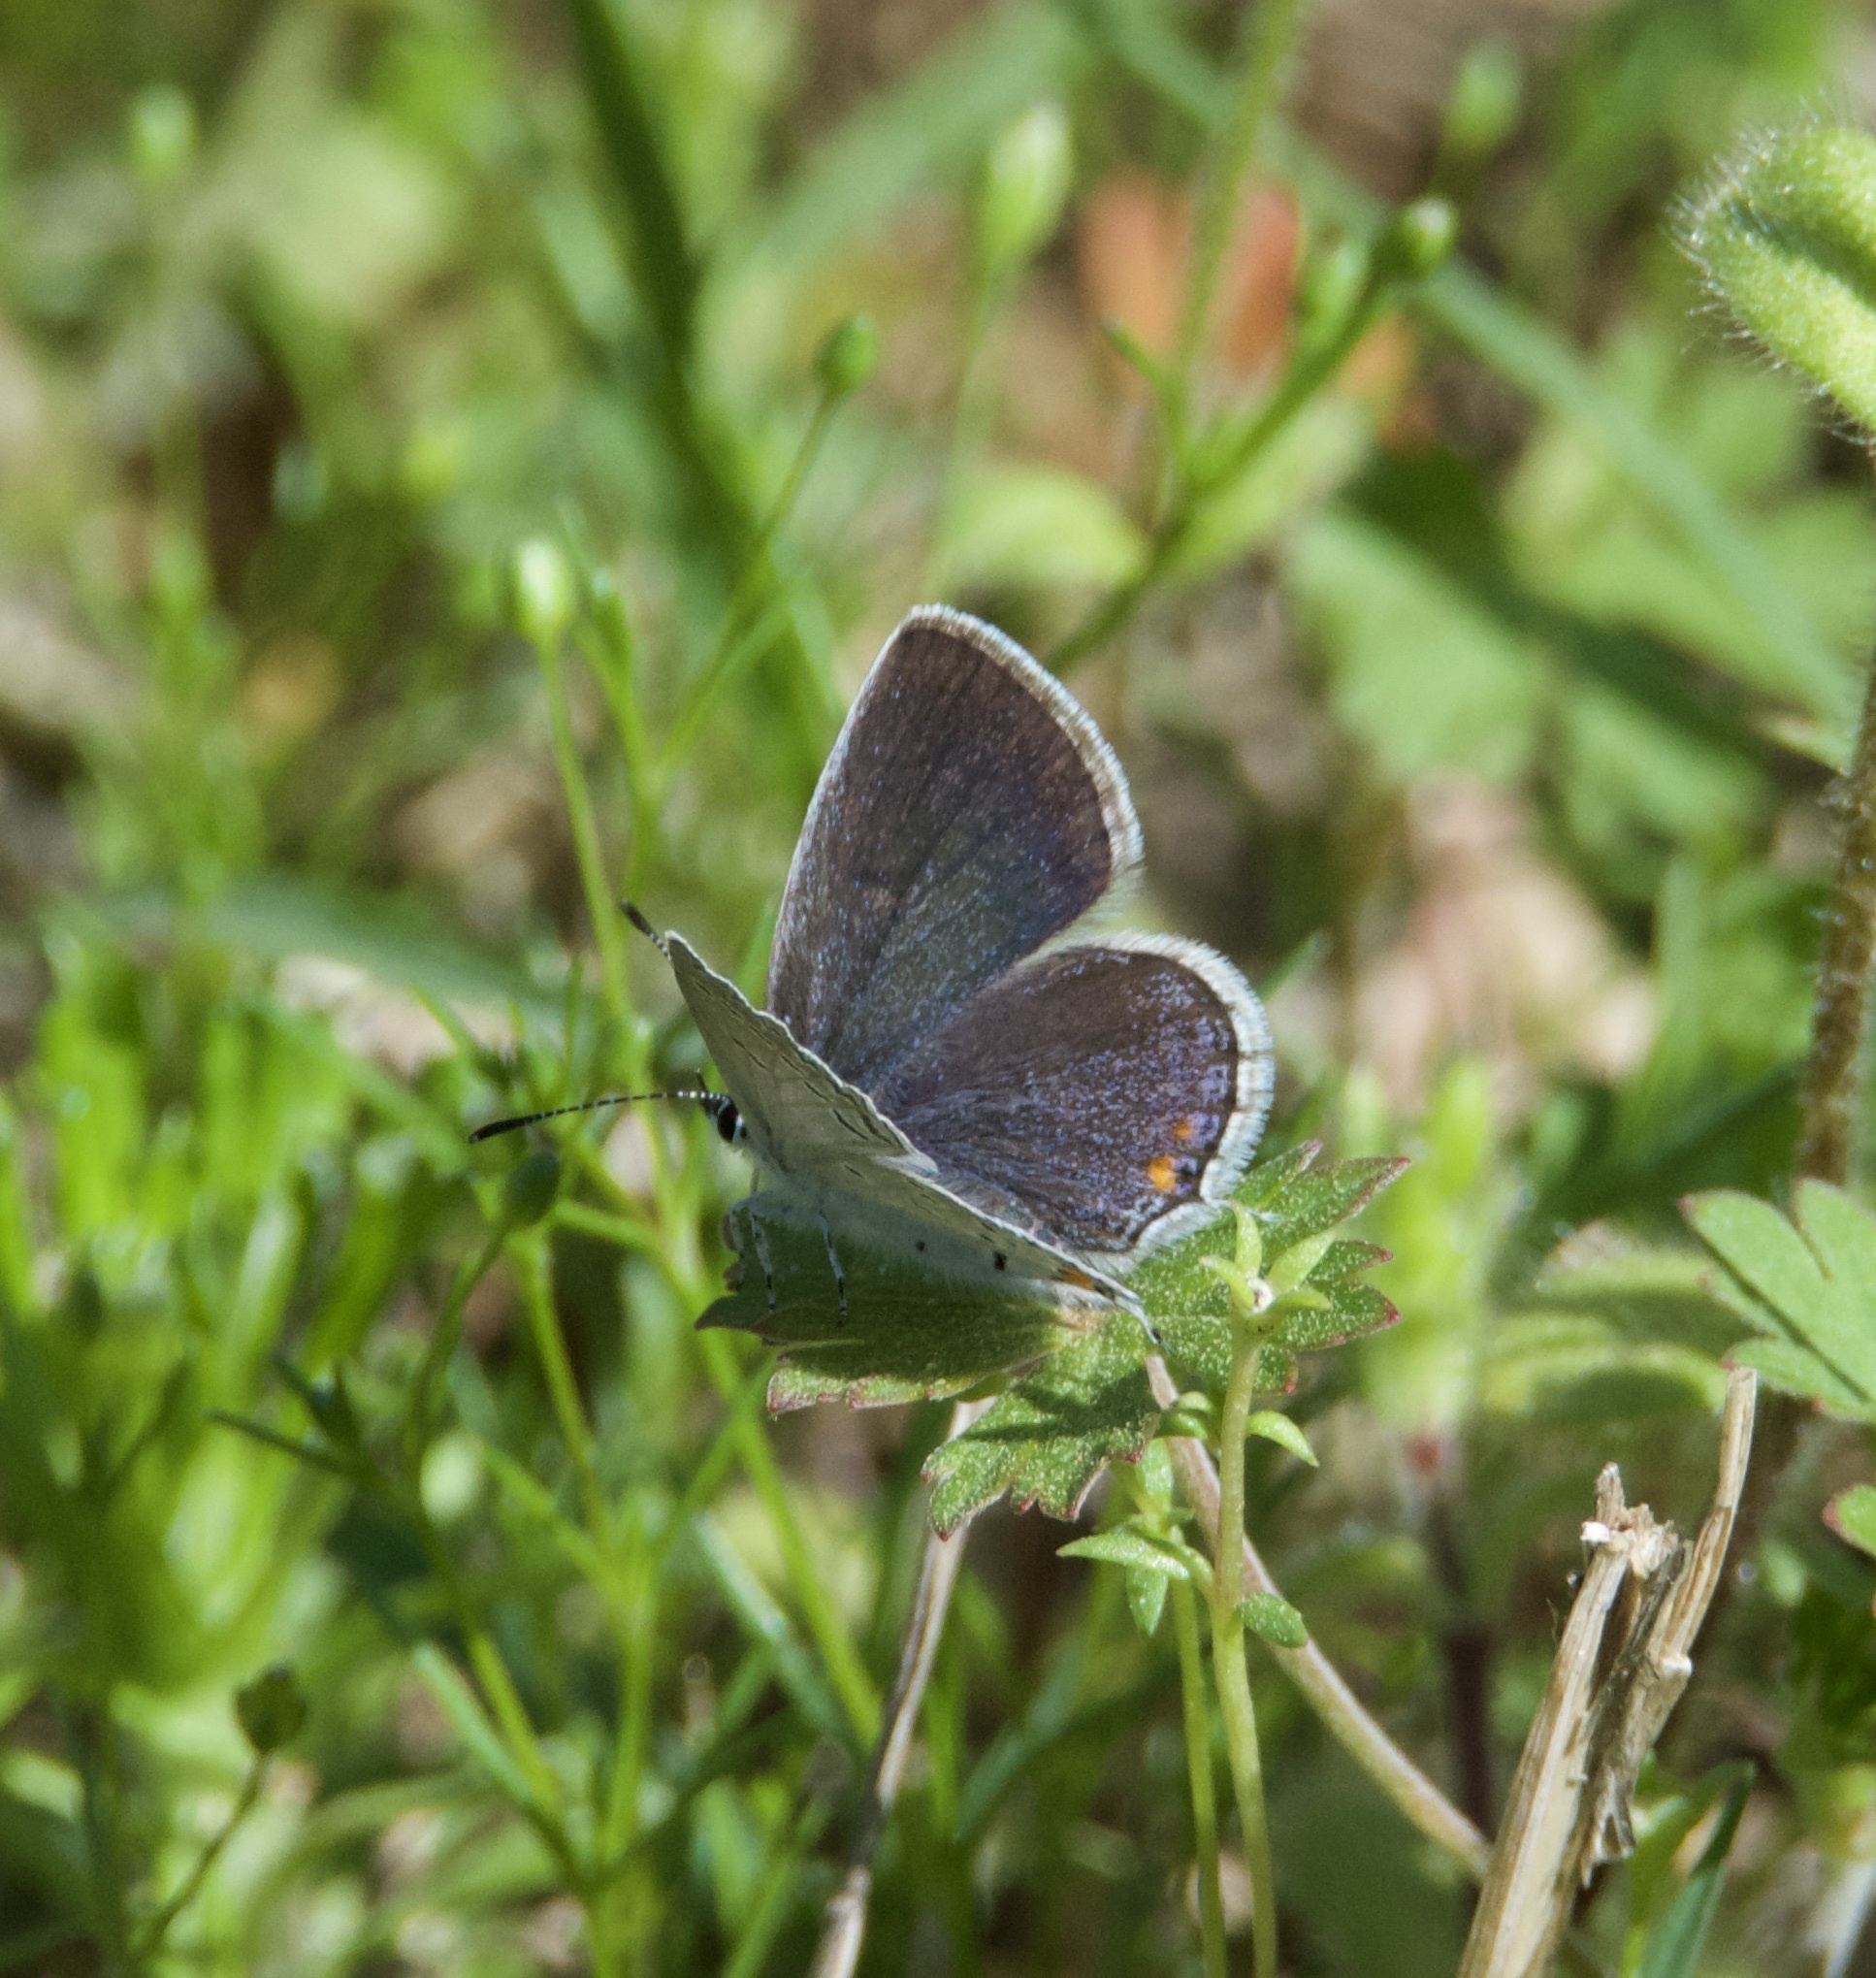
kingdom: Animalia
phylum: Arthropoda
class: Insecta
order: Lepidoptera
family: Lycaenidae
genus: Elkalyce
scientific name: Elkalyce comyntas
